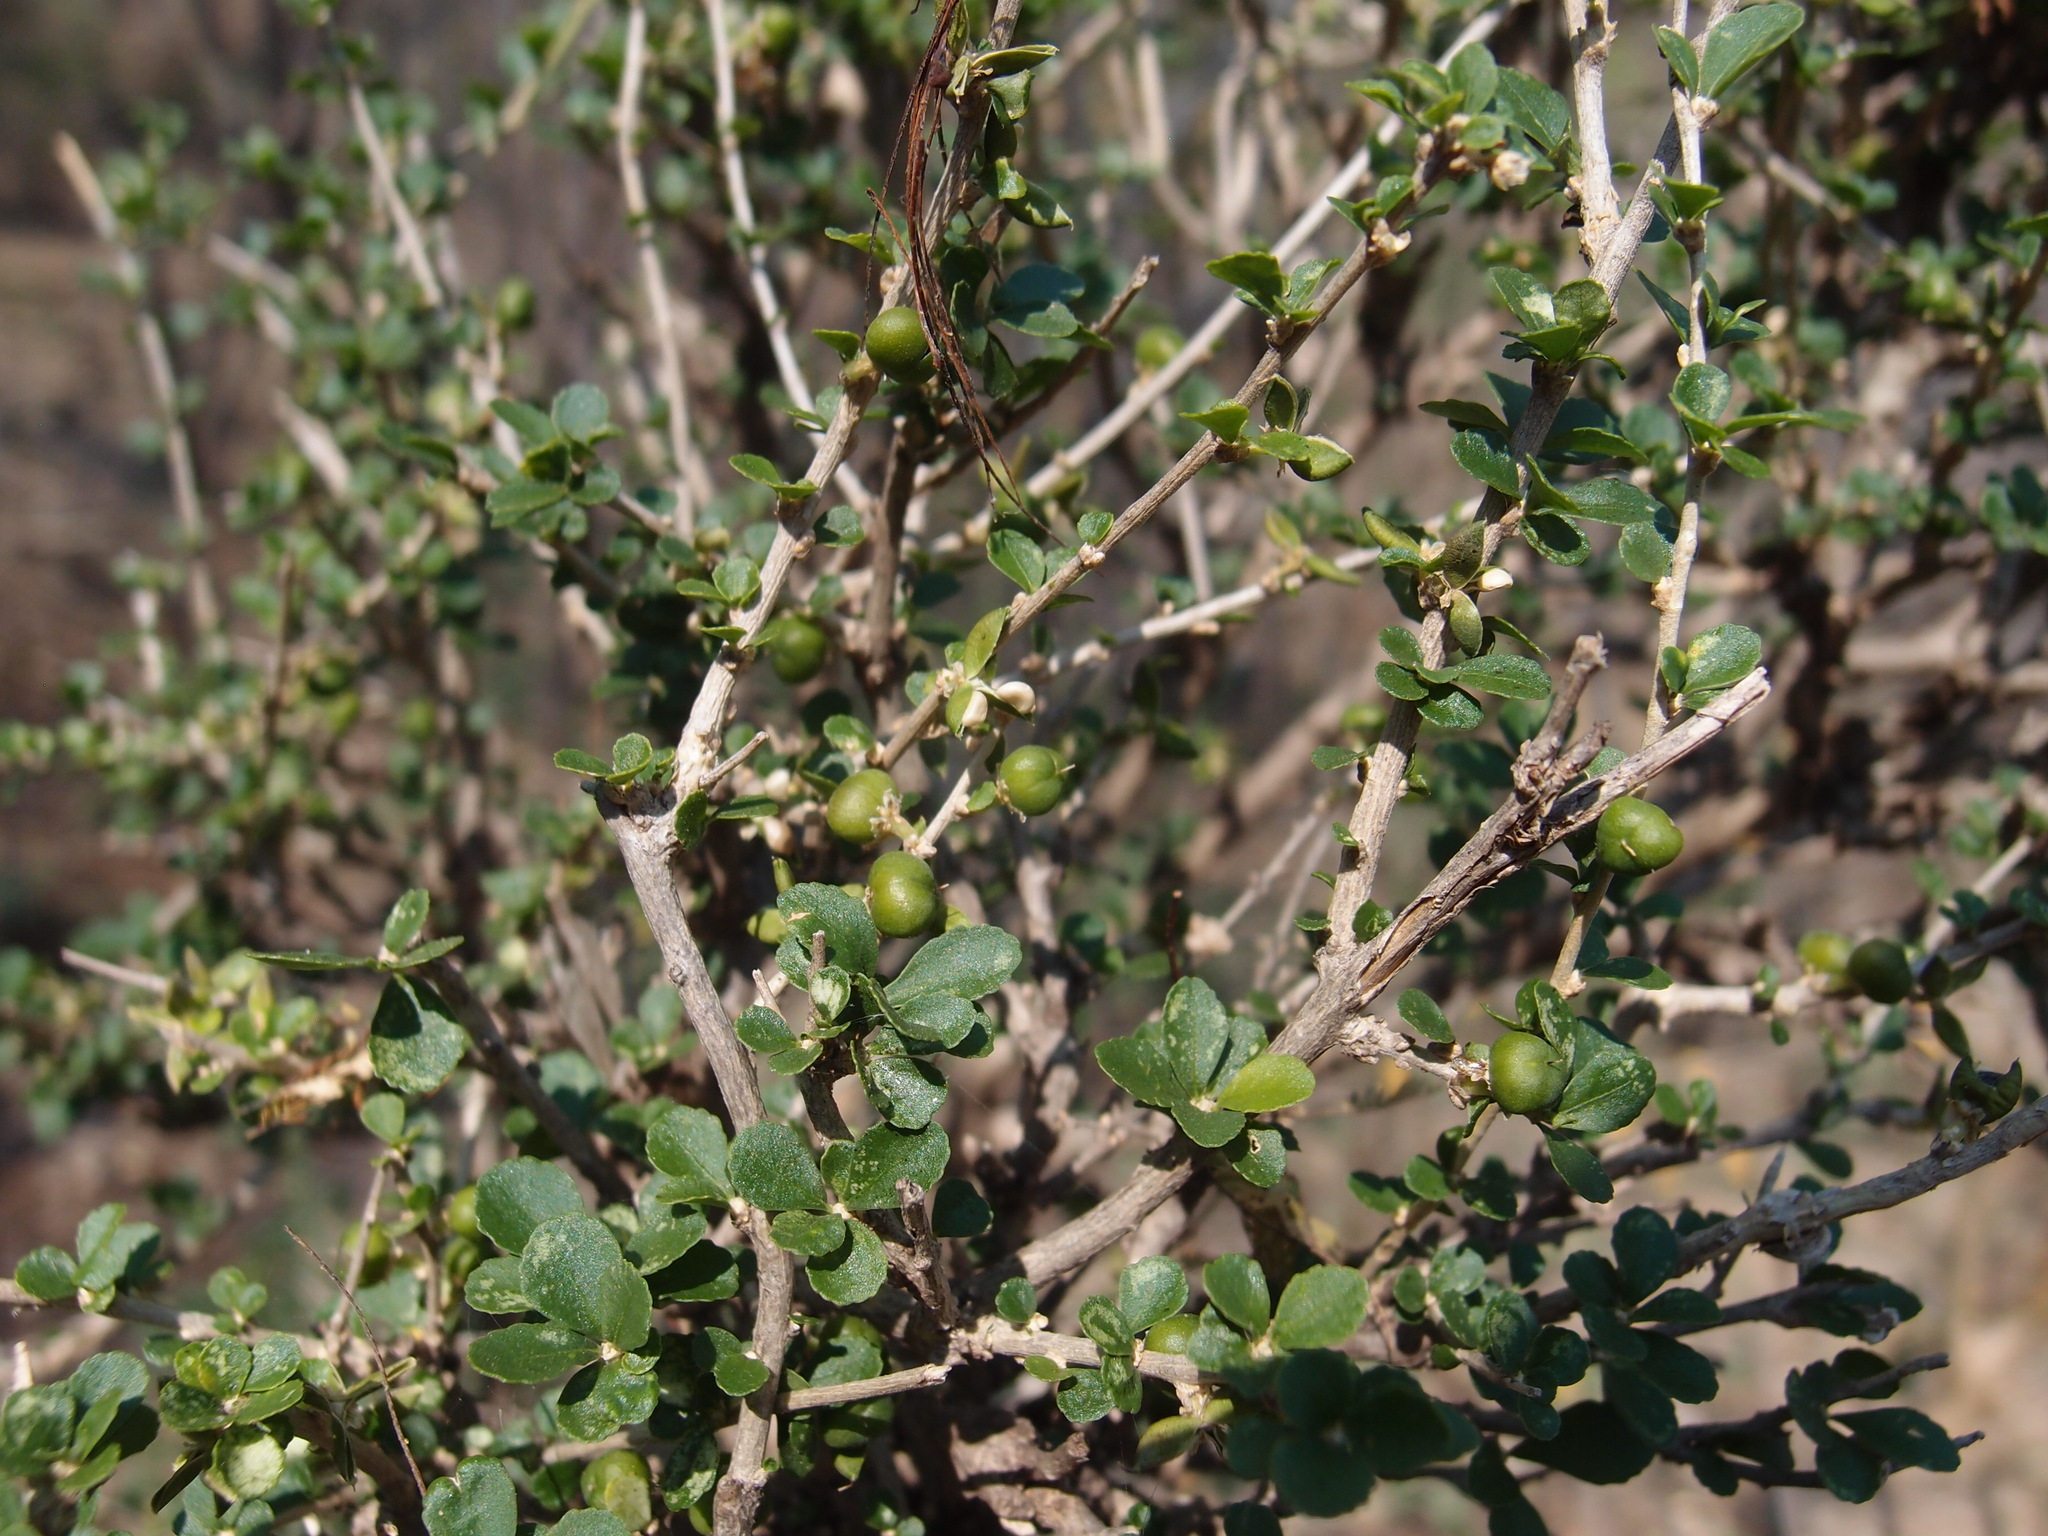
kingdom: Plantae
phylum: Tracheophyta
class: Magnoliopsida
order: Malpighiales
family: Euphorbiaceae
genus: Adelia
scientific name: Adelia brandegeei
